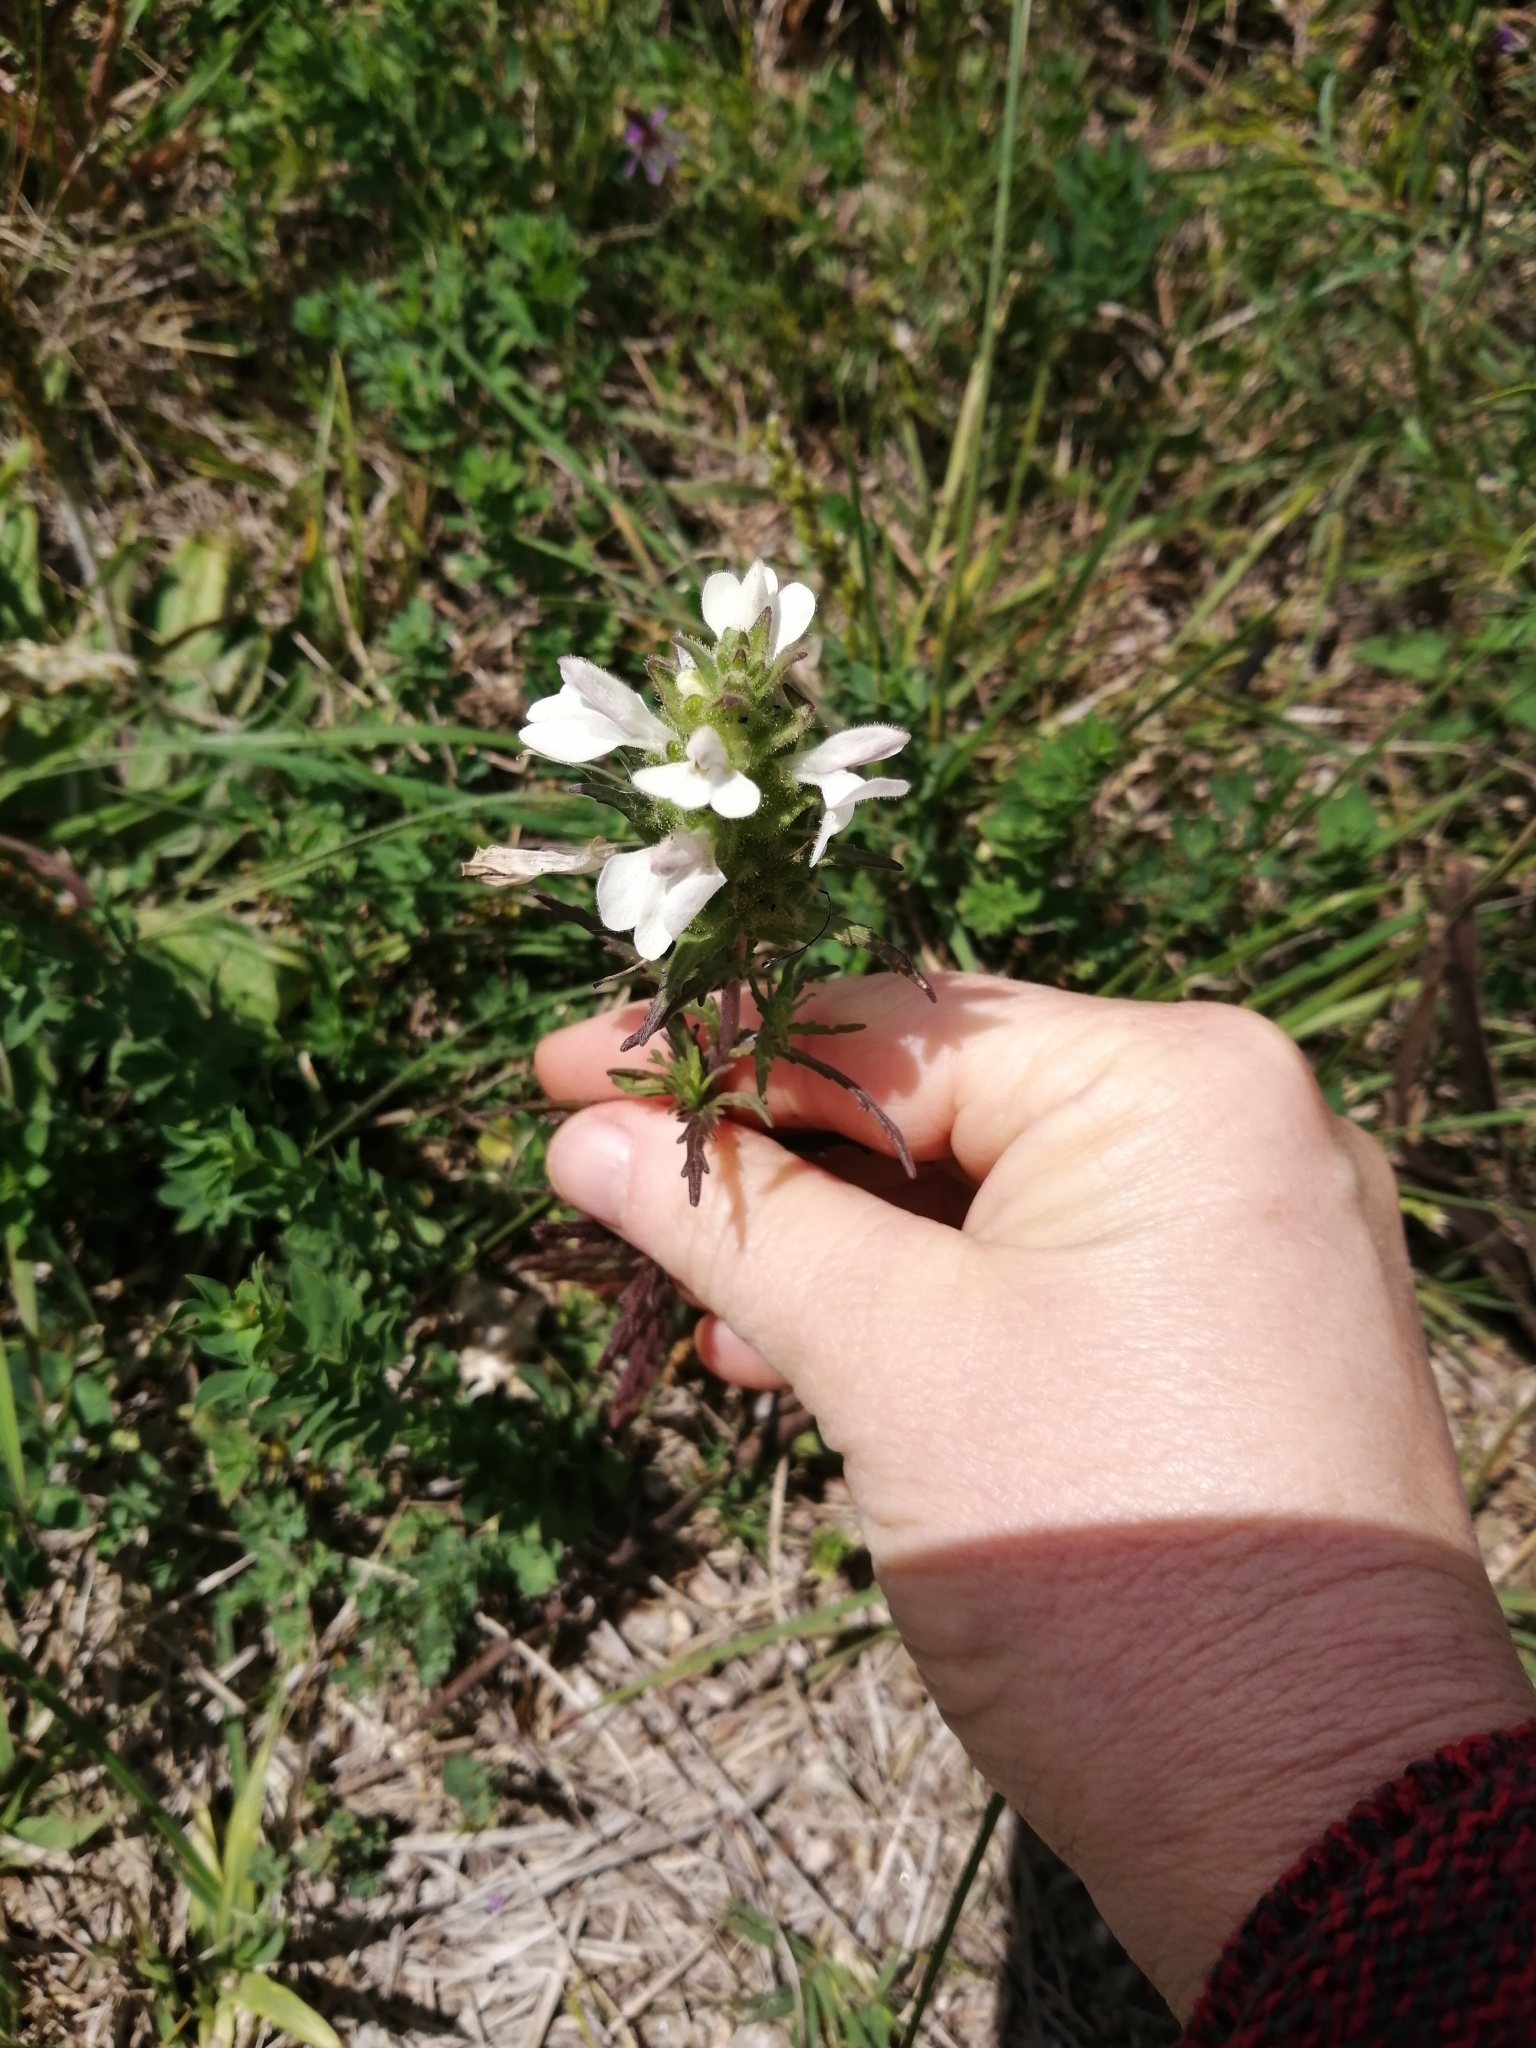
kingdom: Plantae
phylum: Tracheophyta
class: Magnoliopsida
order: Lamiales
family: Orobanchaceae
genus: Bellardia
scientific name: Bellardia trixago
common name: Mediterranean lineseed
